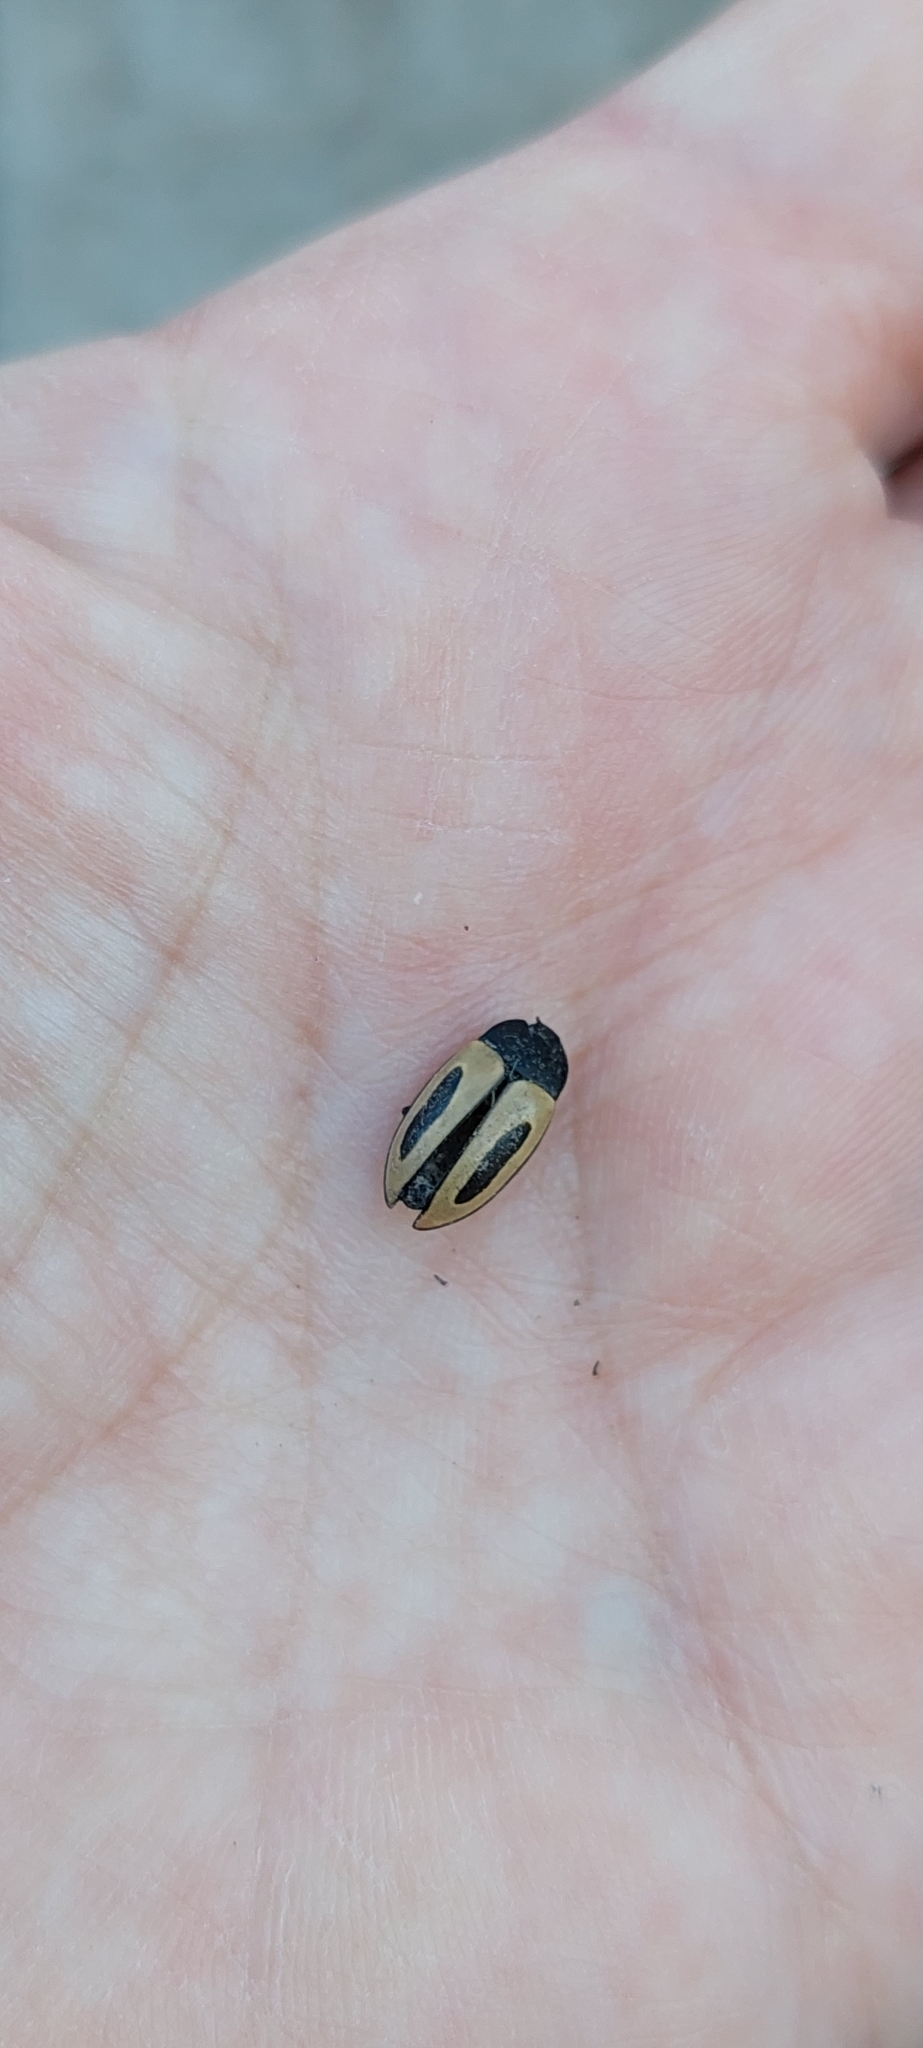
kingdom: Animalia
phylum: Arthropoda
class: Insecta
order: Coleoptera
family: Erotylidae
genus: Iphiclus
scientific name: Iphiclus
